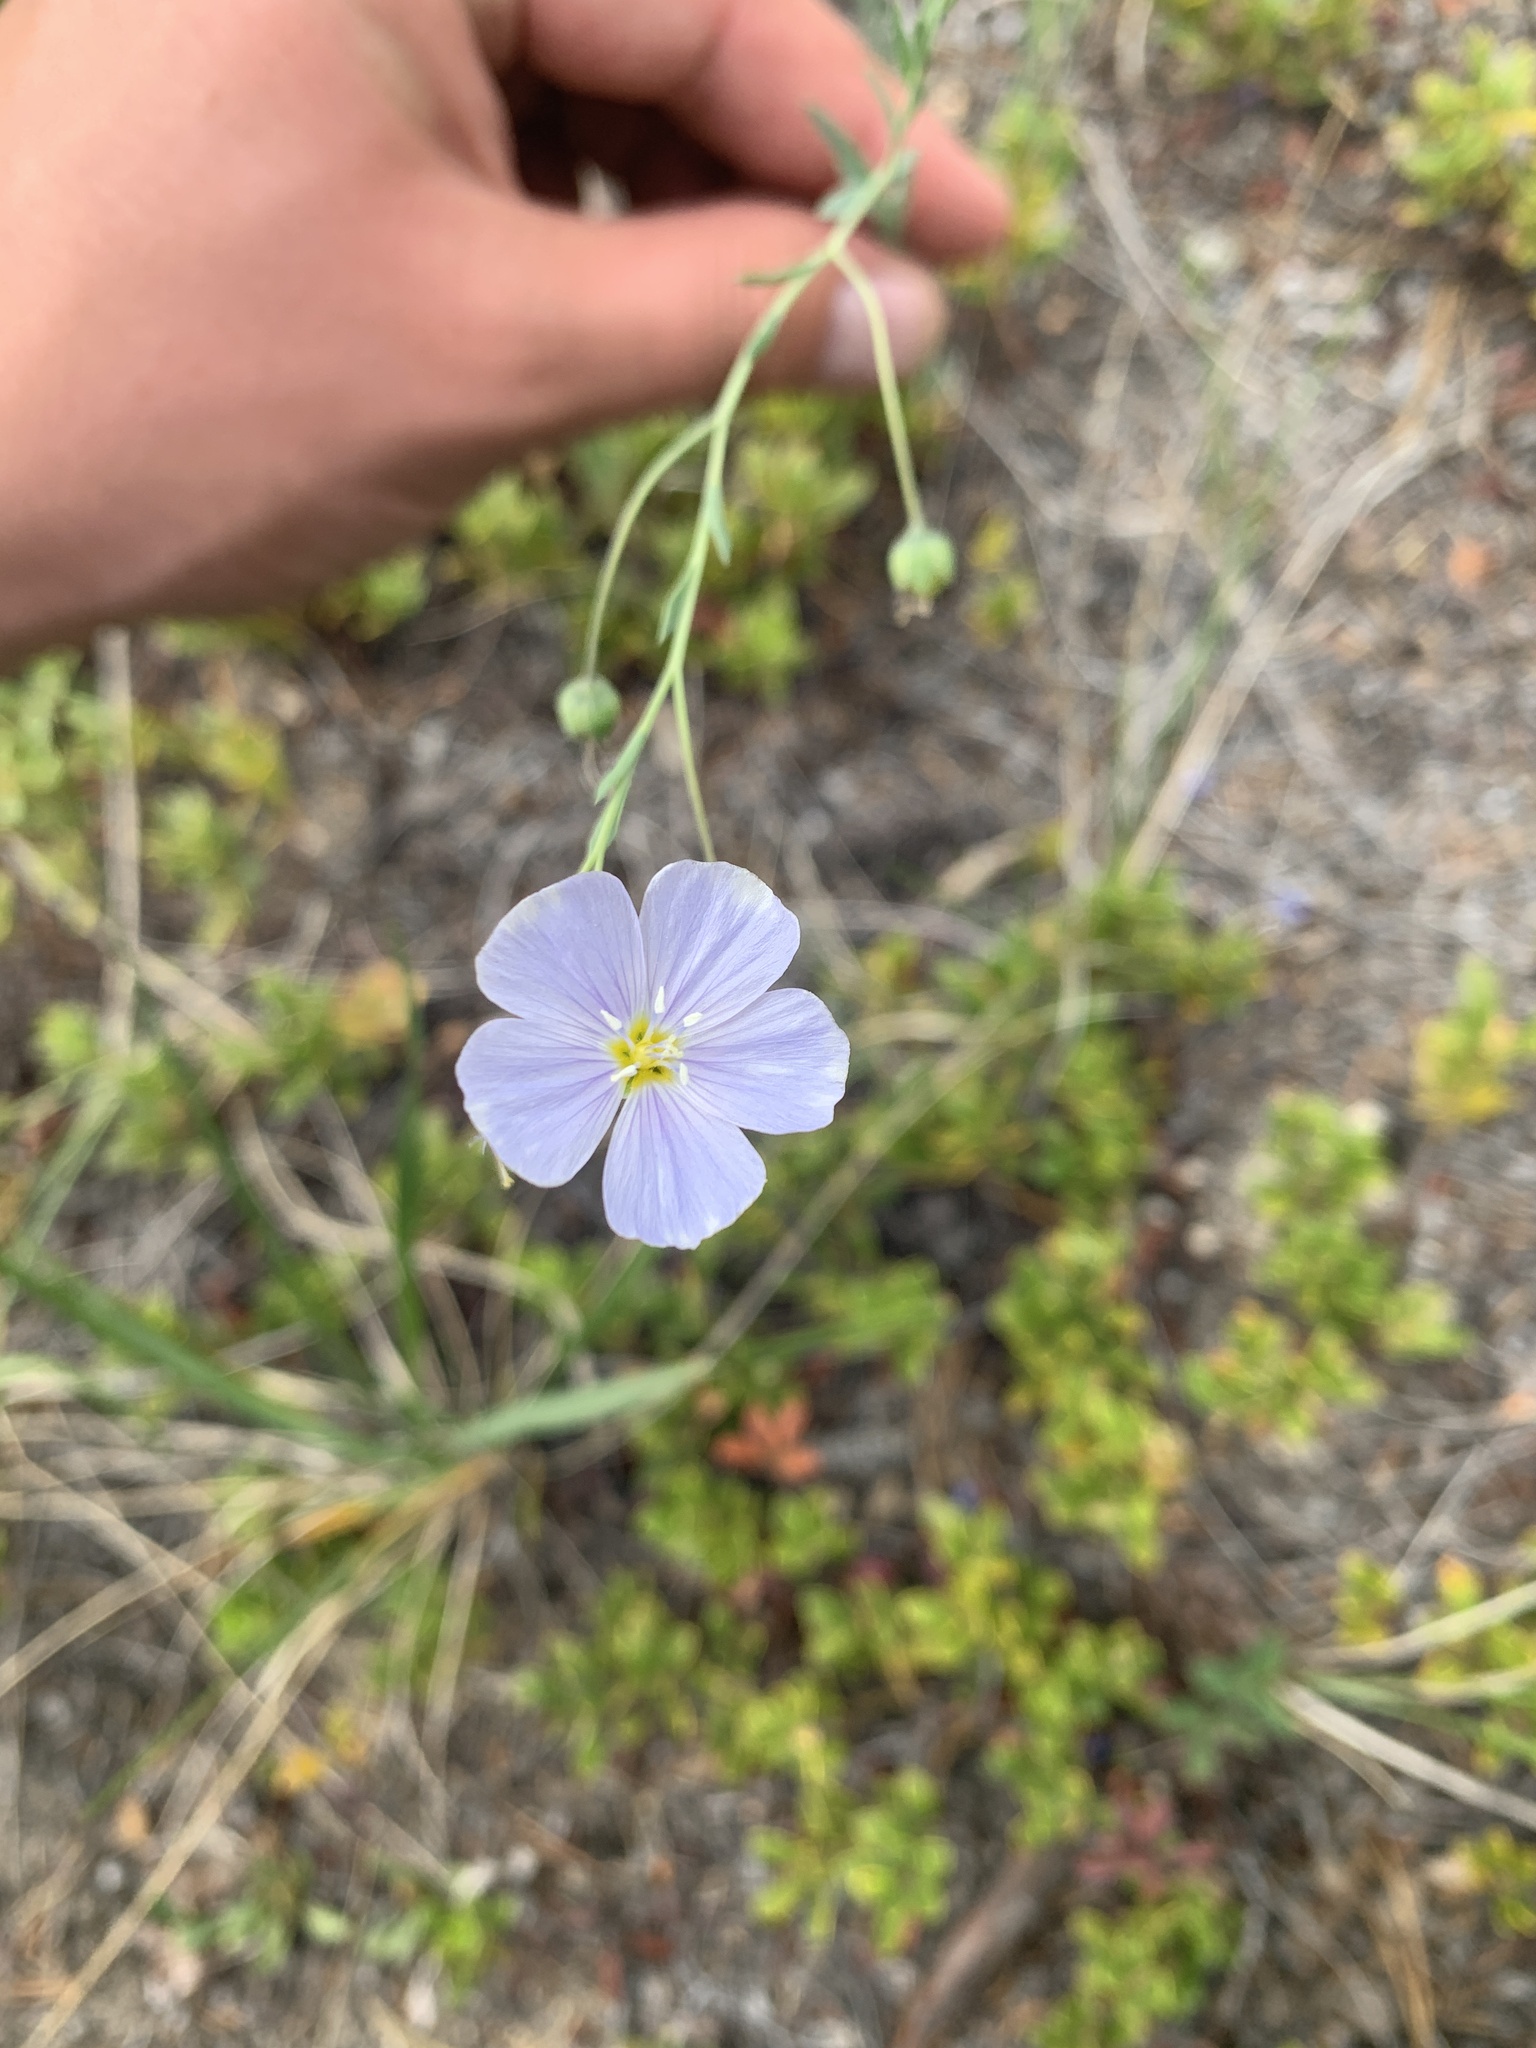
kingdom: Plantae
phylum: Tracheophyta
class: Magnoliopsida
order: Malpighiales
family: Linaceae
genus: Linum
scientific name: Linum lewisii
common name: Prairie flax
